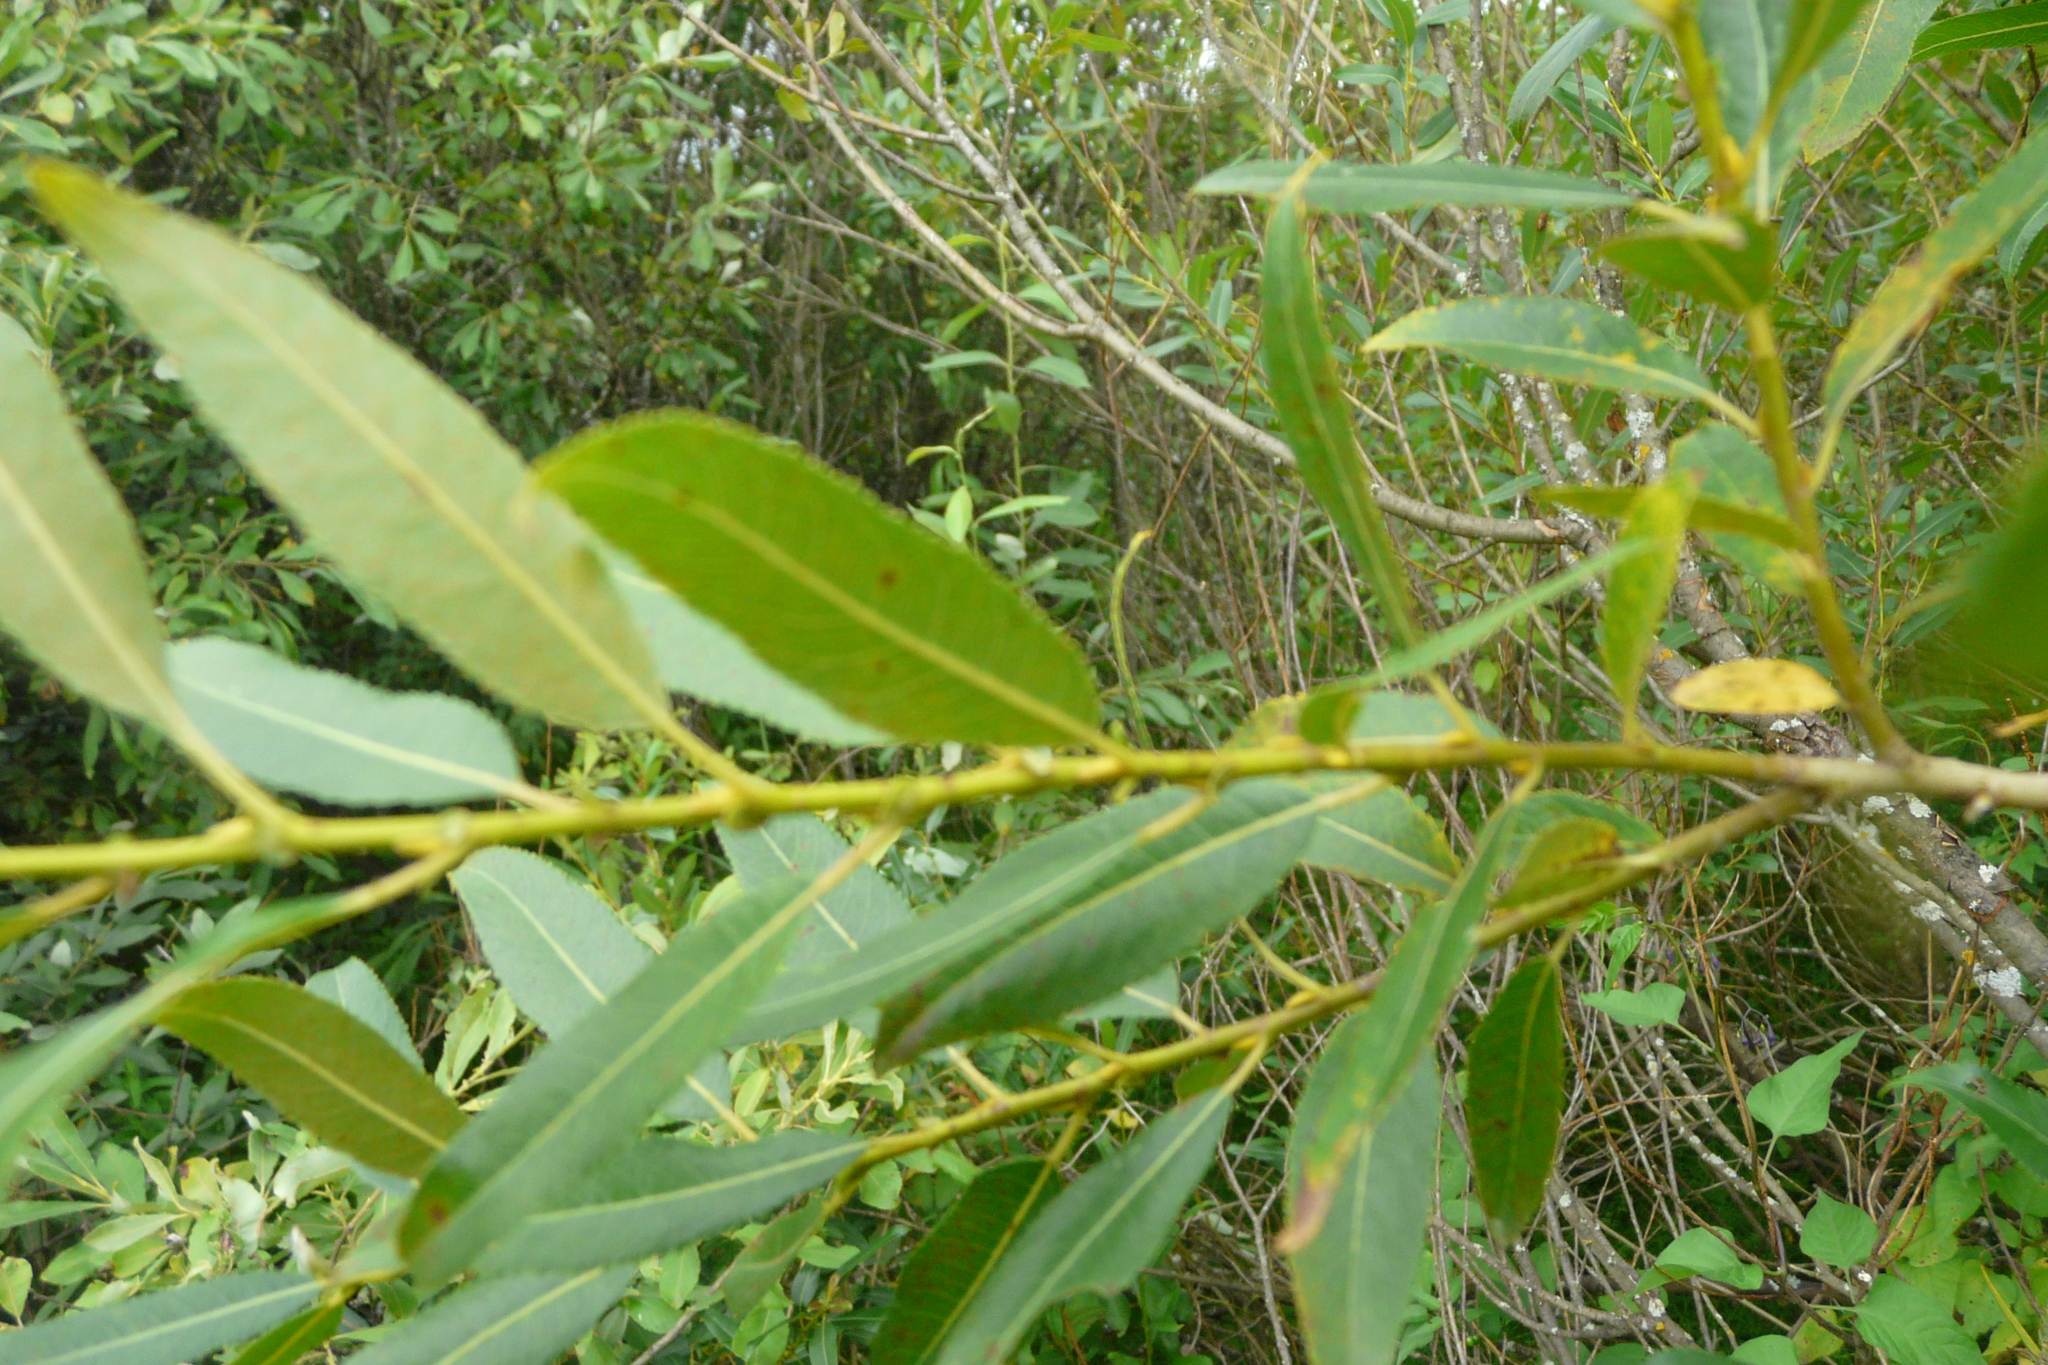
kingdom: Plantae
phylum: Tracheophyta
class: Magnoliopsida
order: Malpighiales
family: Salicaceae
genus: Salix
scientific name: Salix triandra
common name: Almond willow
